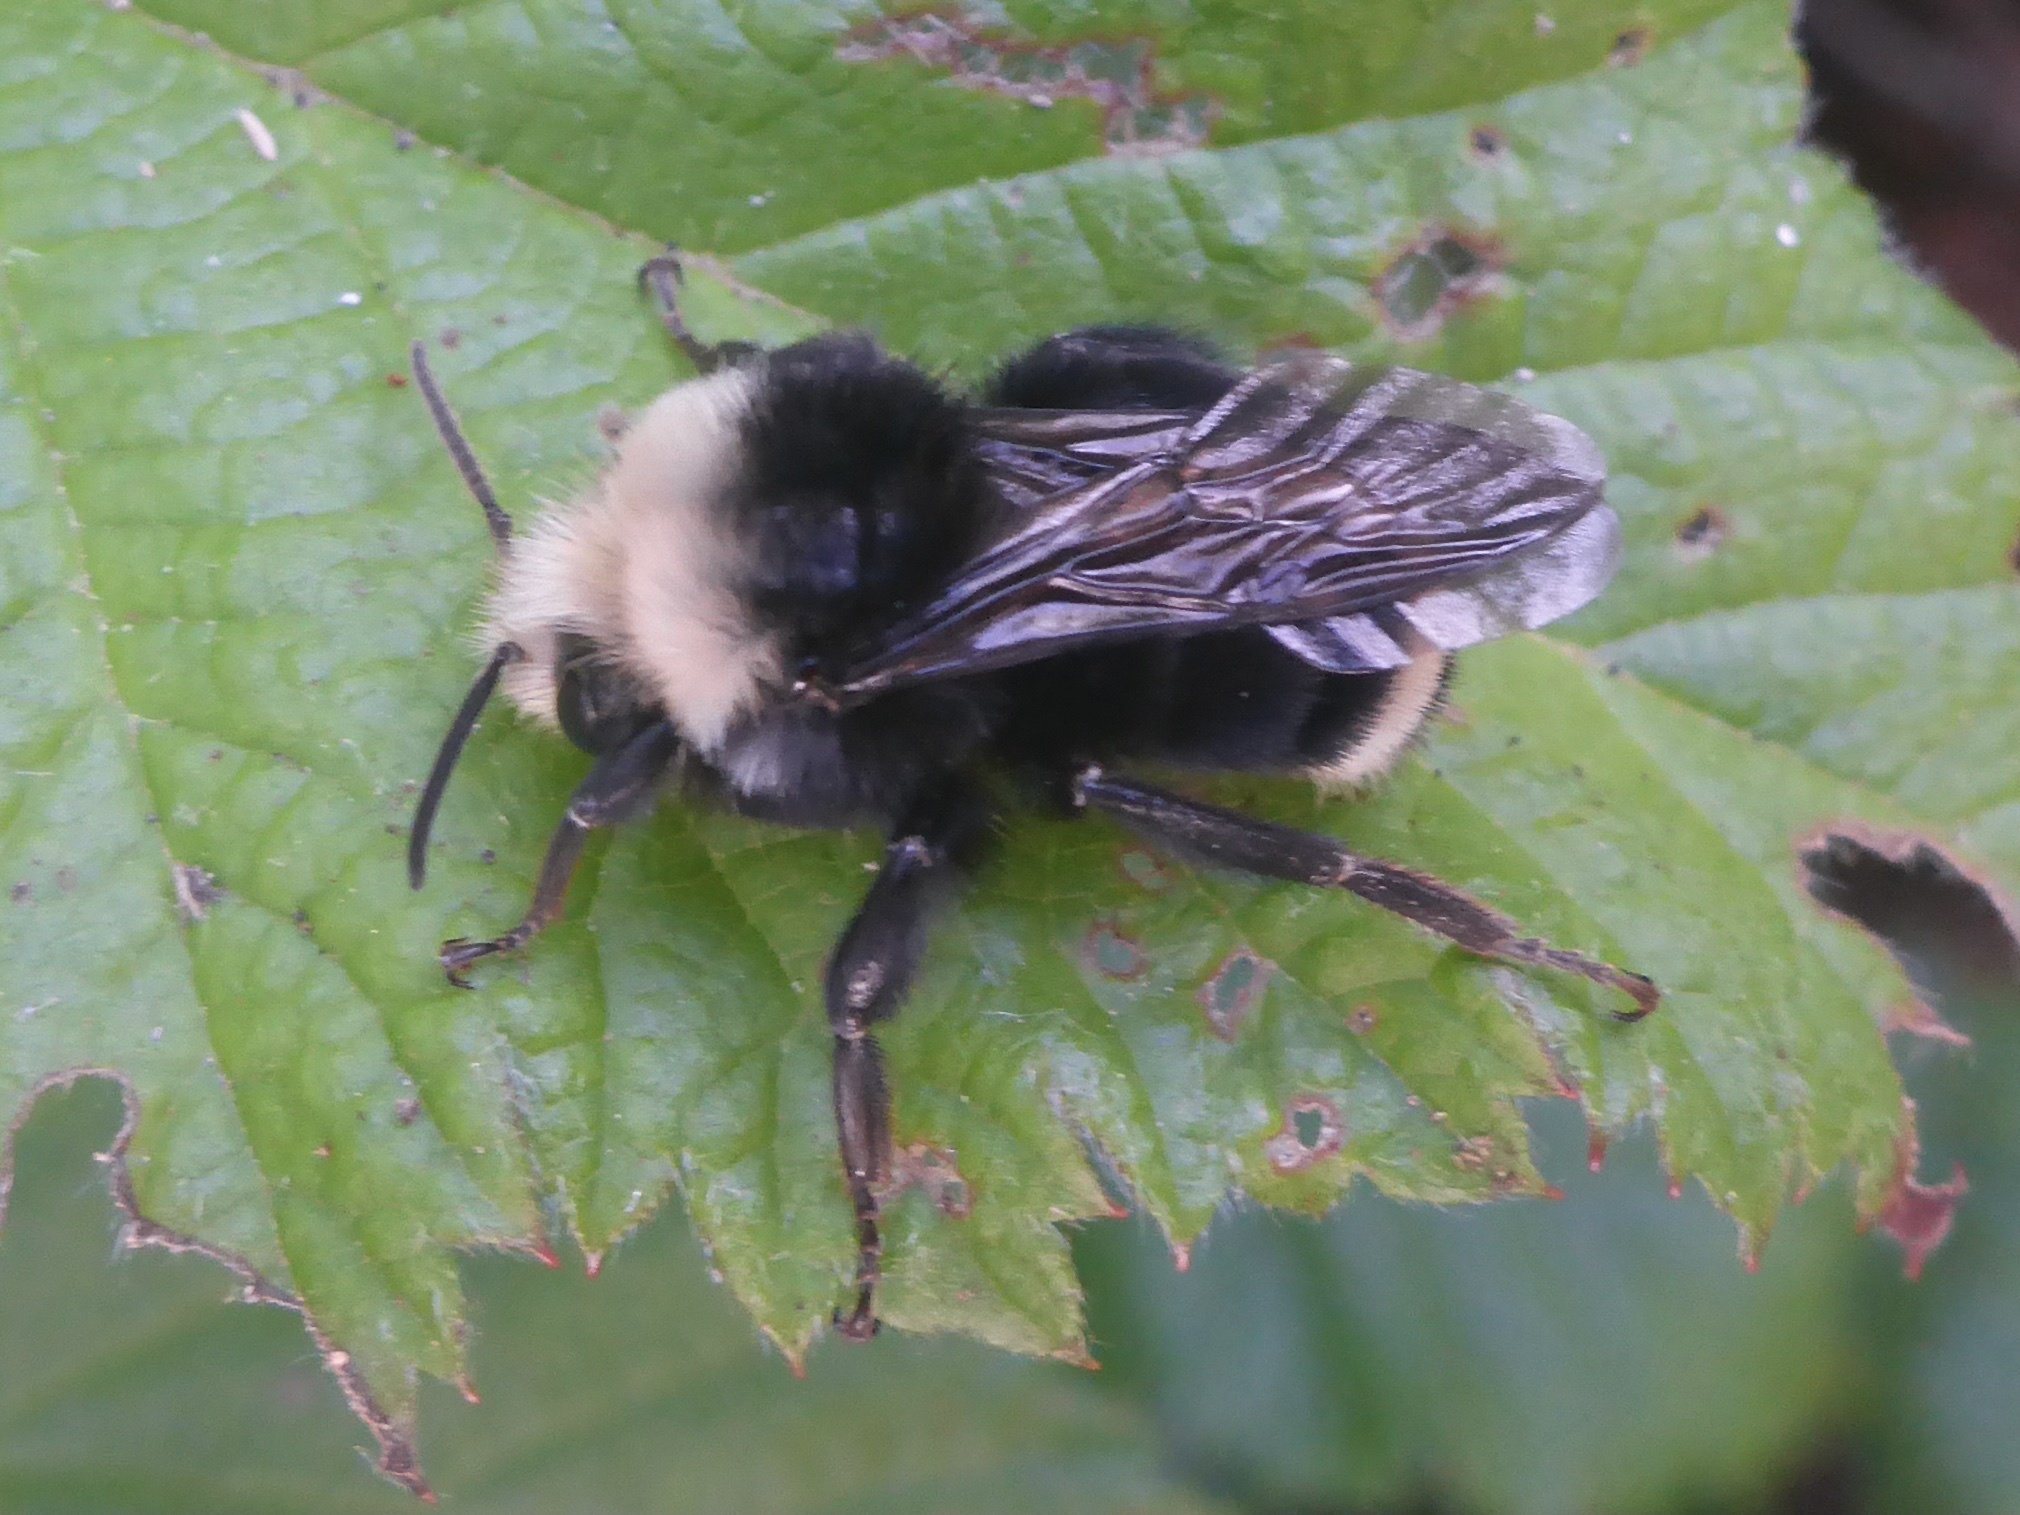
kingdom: Animalia
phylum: Arthropoda
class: Insecta
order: Hymenoptera
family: Apidae
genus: Bombus
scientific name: Bombus vosnesenskii
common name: Vosnesensky bumble bee
